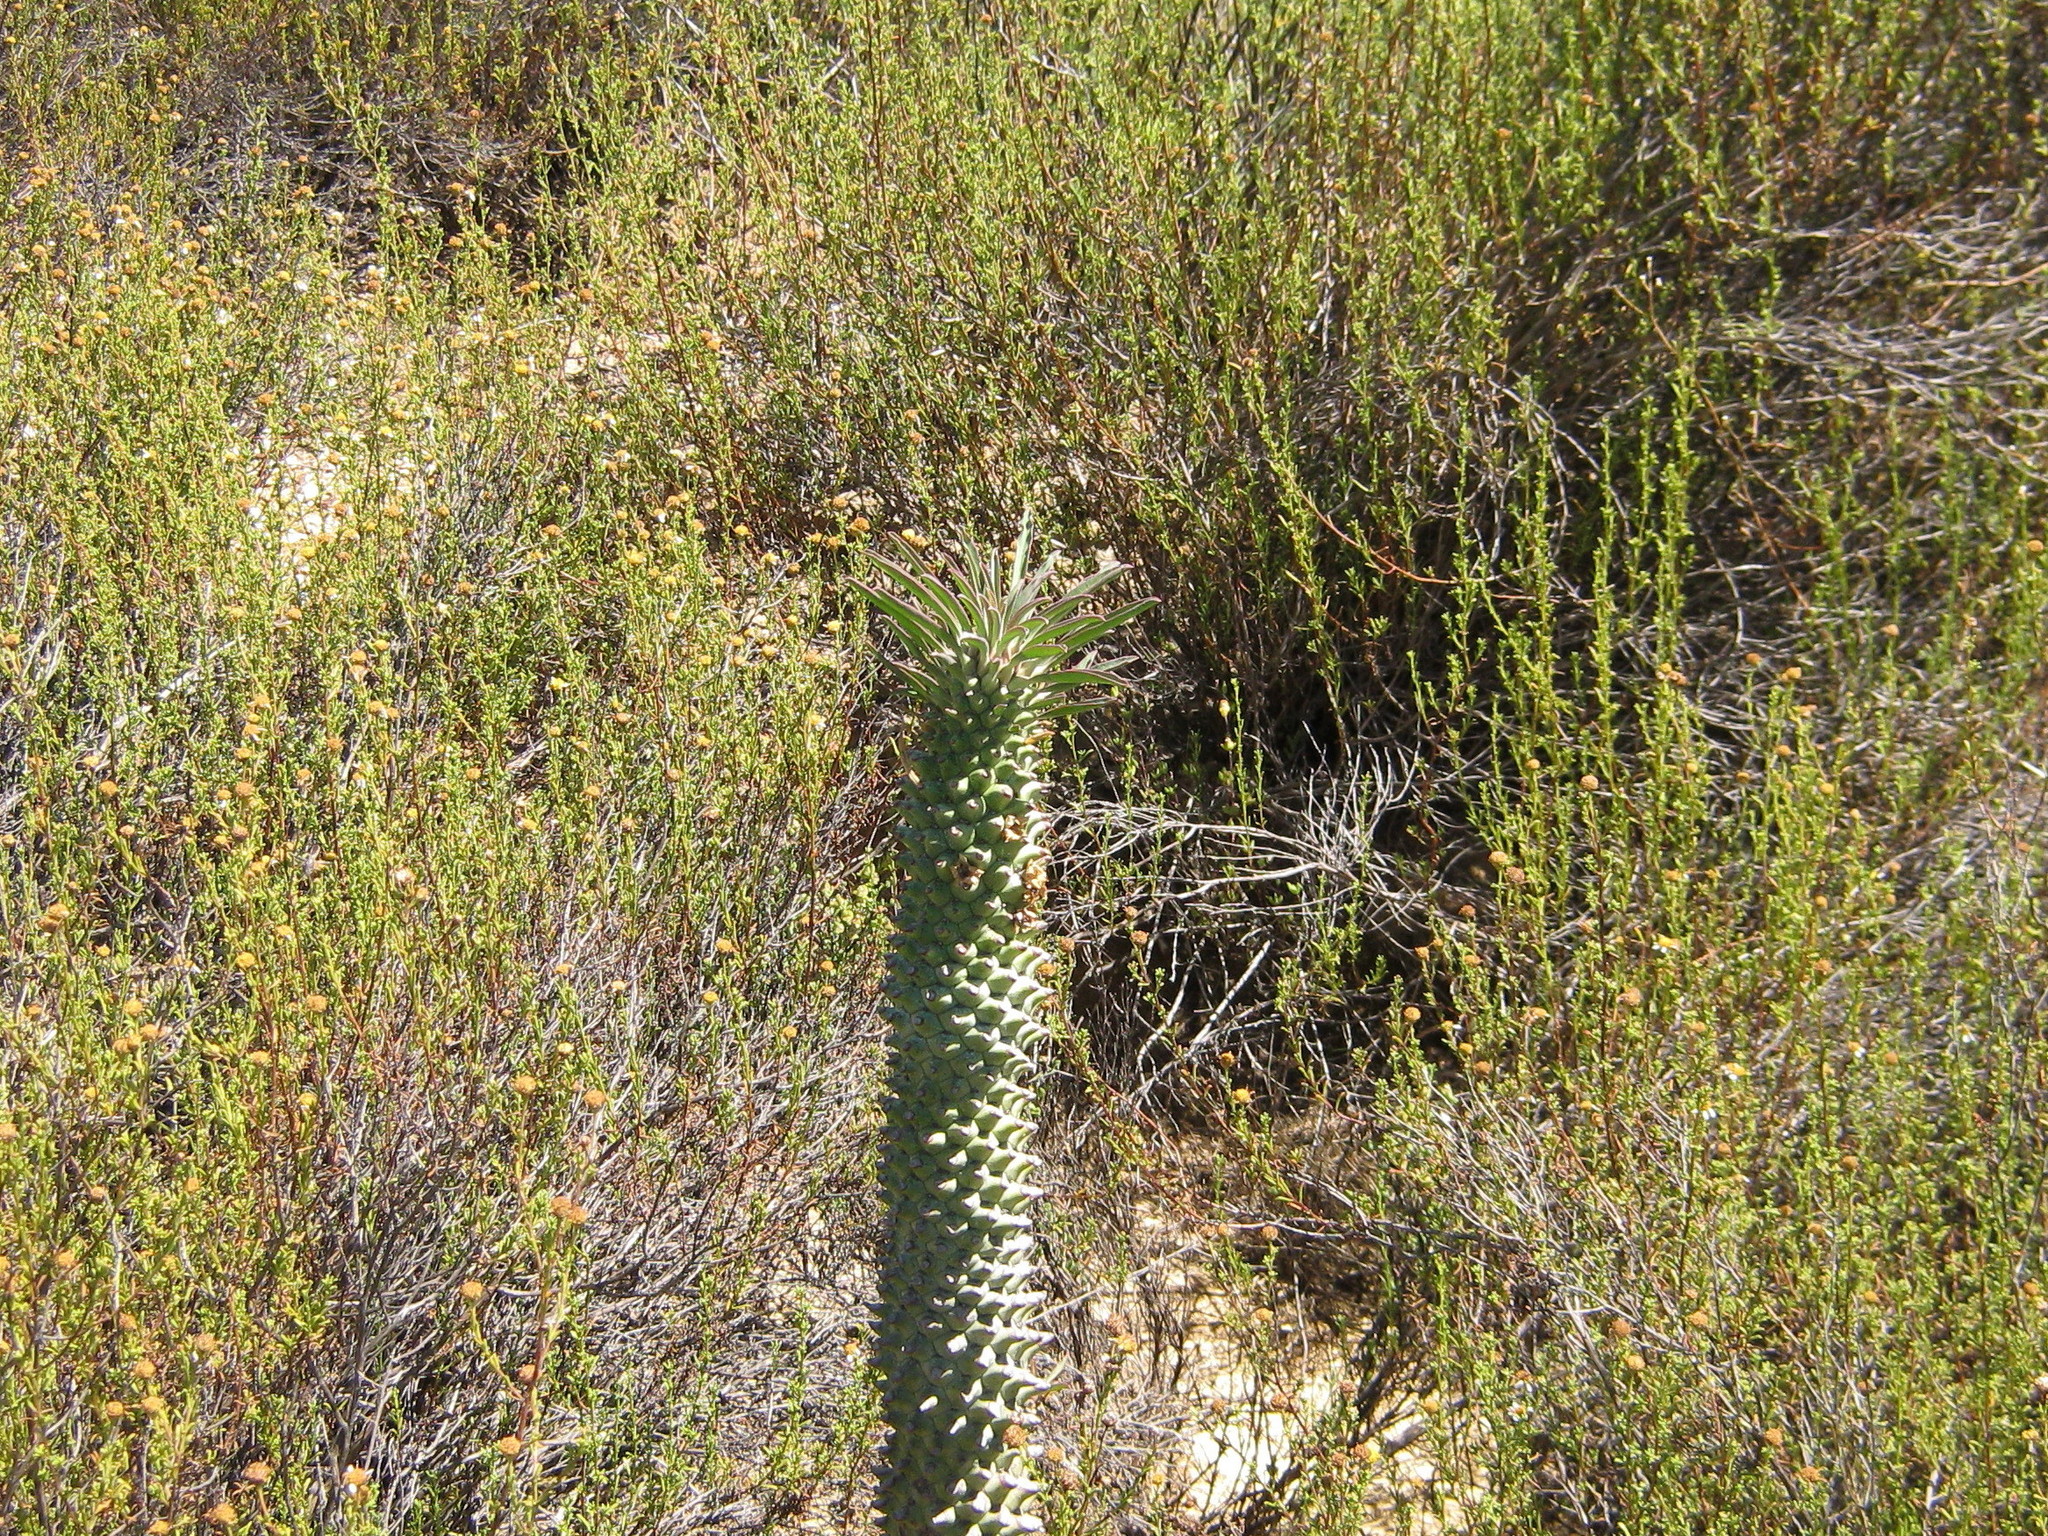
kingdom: Plantae
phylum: Tracheophyta
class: Magnoliopsida
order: Malpighiales
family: Euphorbiaceae
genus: Euphorbia
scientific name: Euphorbia clandestina
